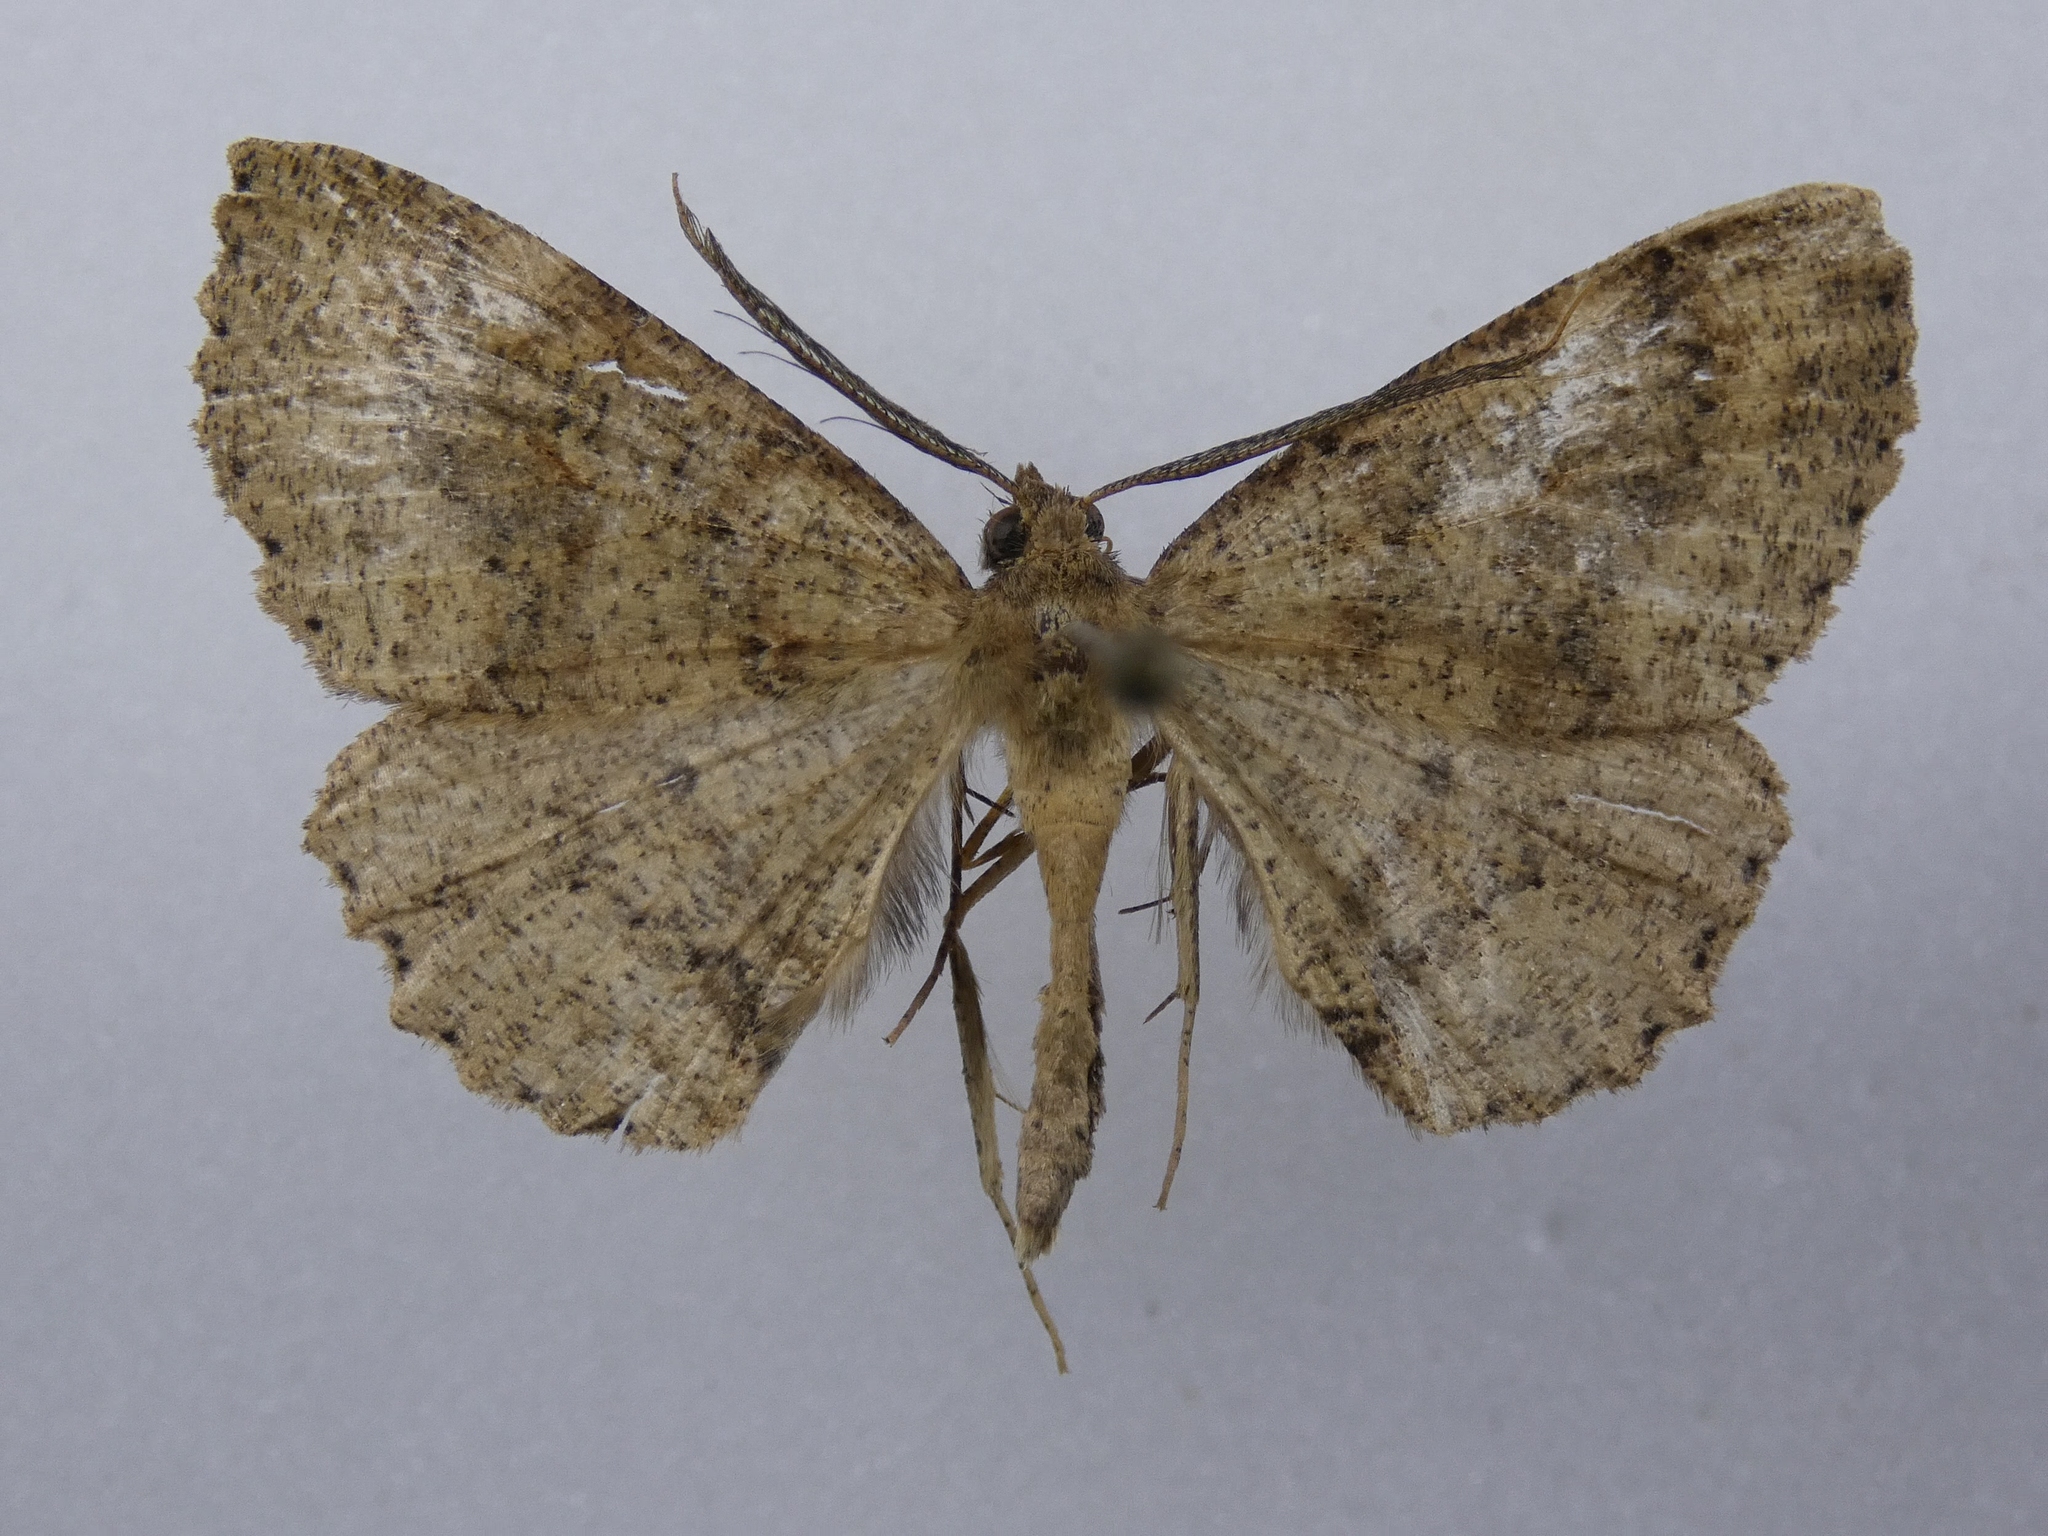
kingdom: Animalia
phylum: Arthropoda
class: Insecta
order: Lepidoptera
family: Geometridae
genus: Cleora
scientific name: Cleora scriptaria
